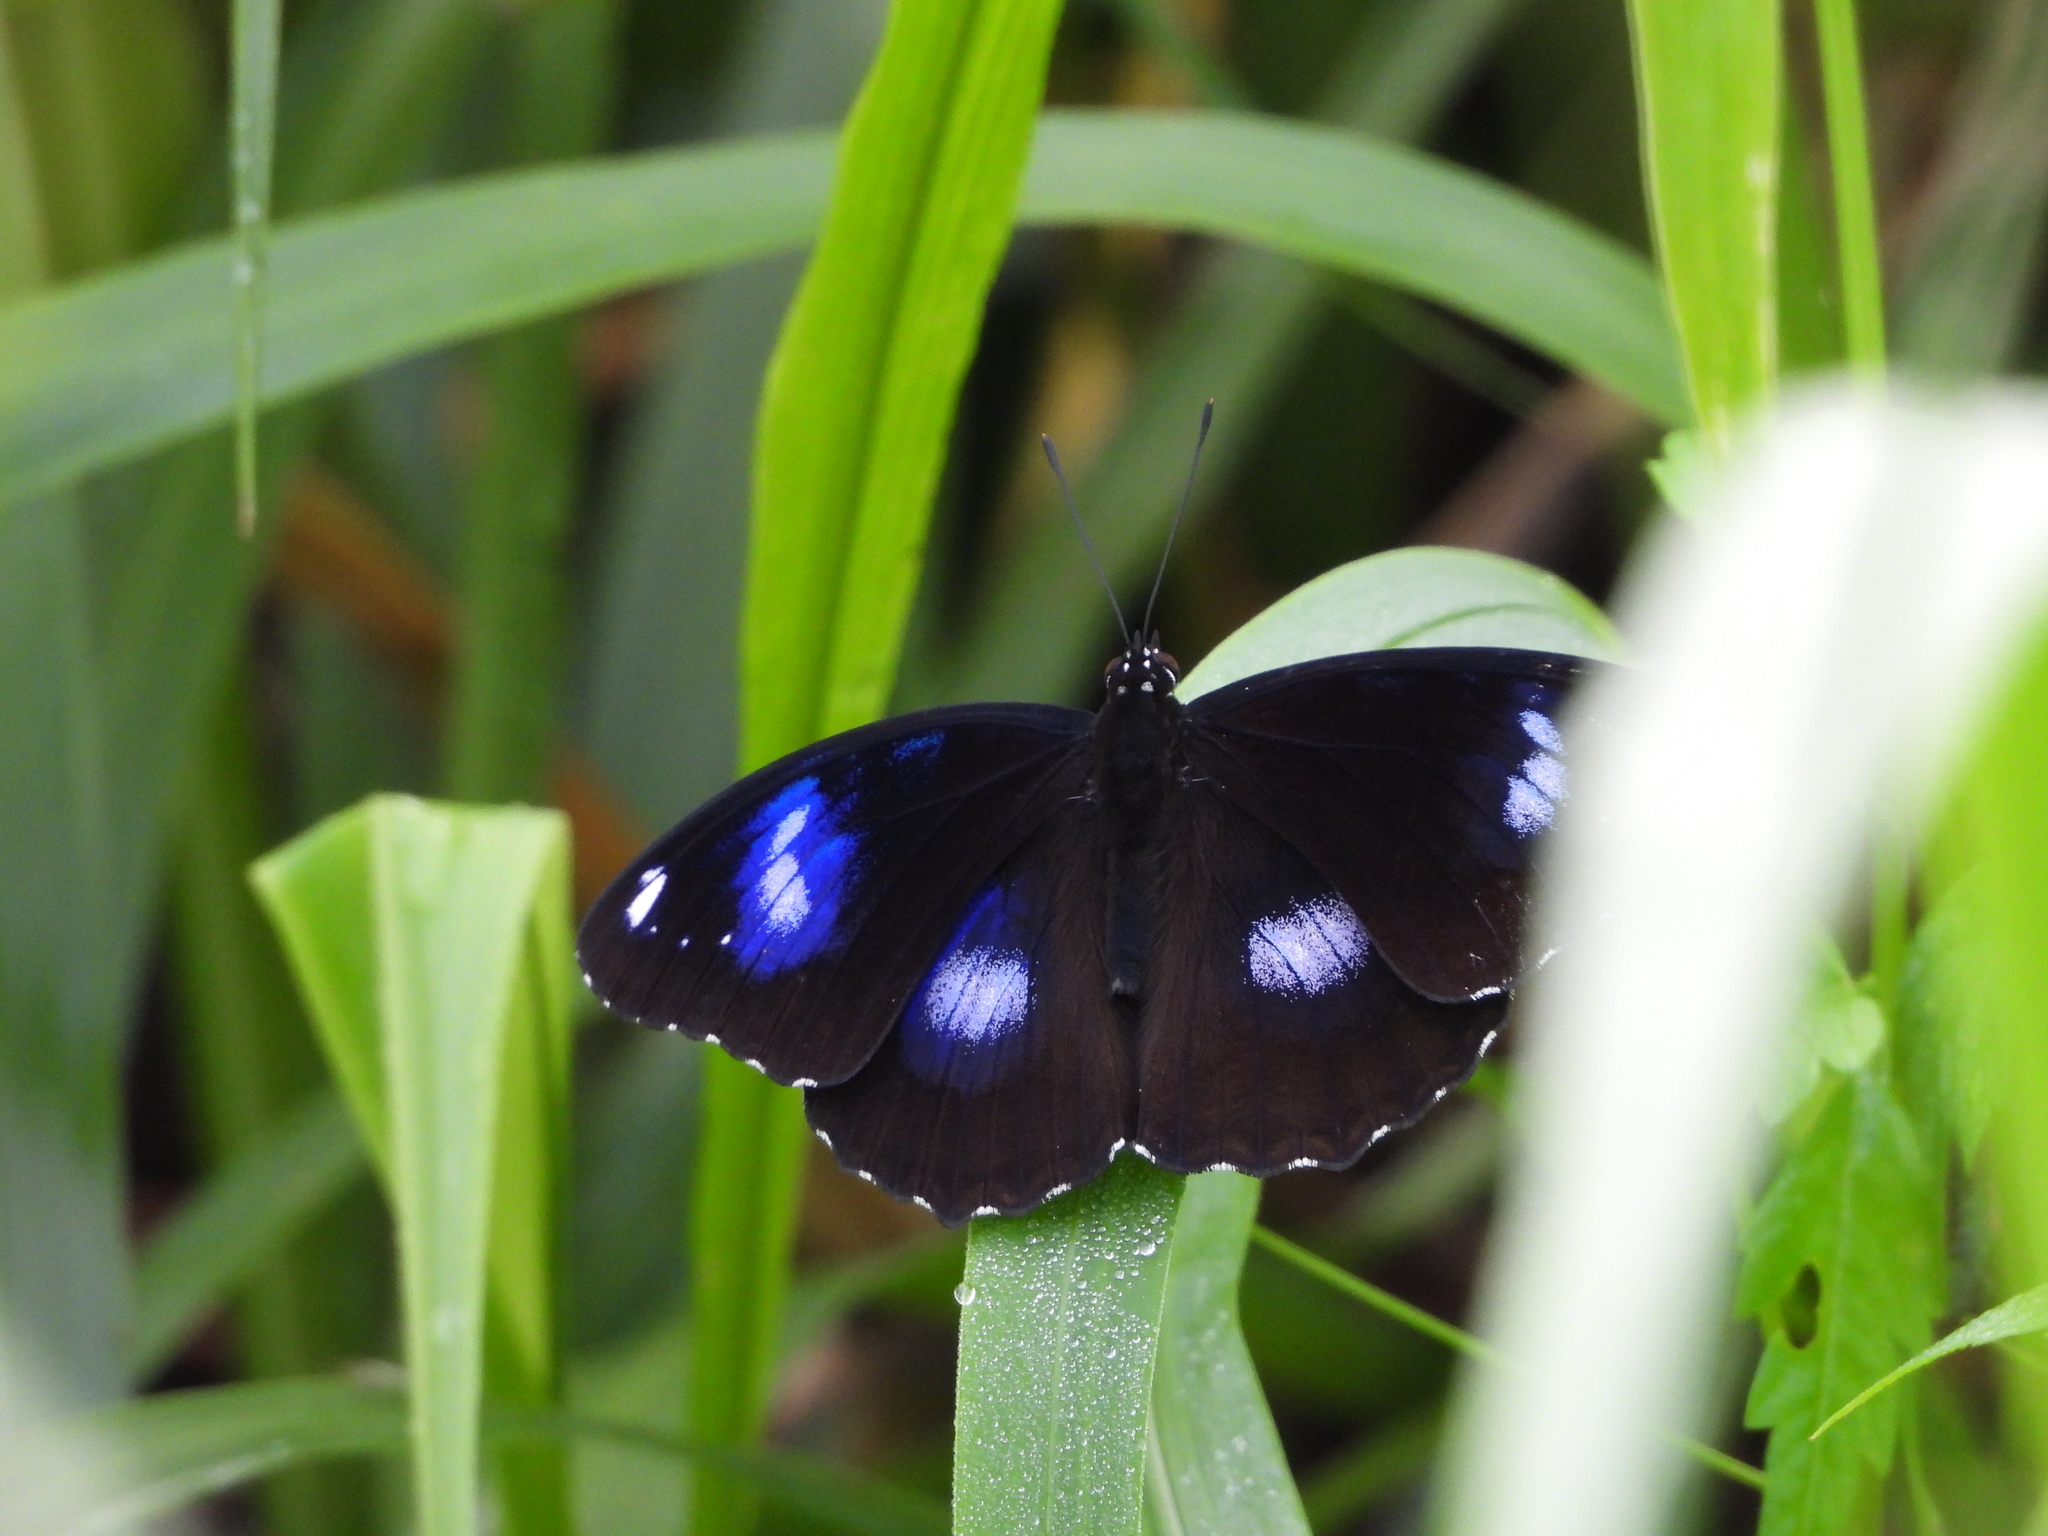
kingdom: Animalia
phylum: Arthropoda
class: Insecta
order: Lepidoptera
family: Nymphalidae
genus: Hypolimnas
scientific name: Hypolimnas bolina
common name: Great eggfly
